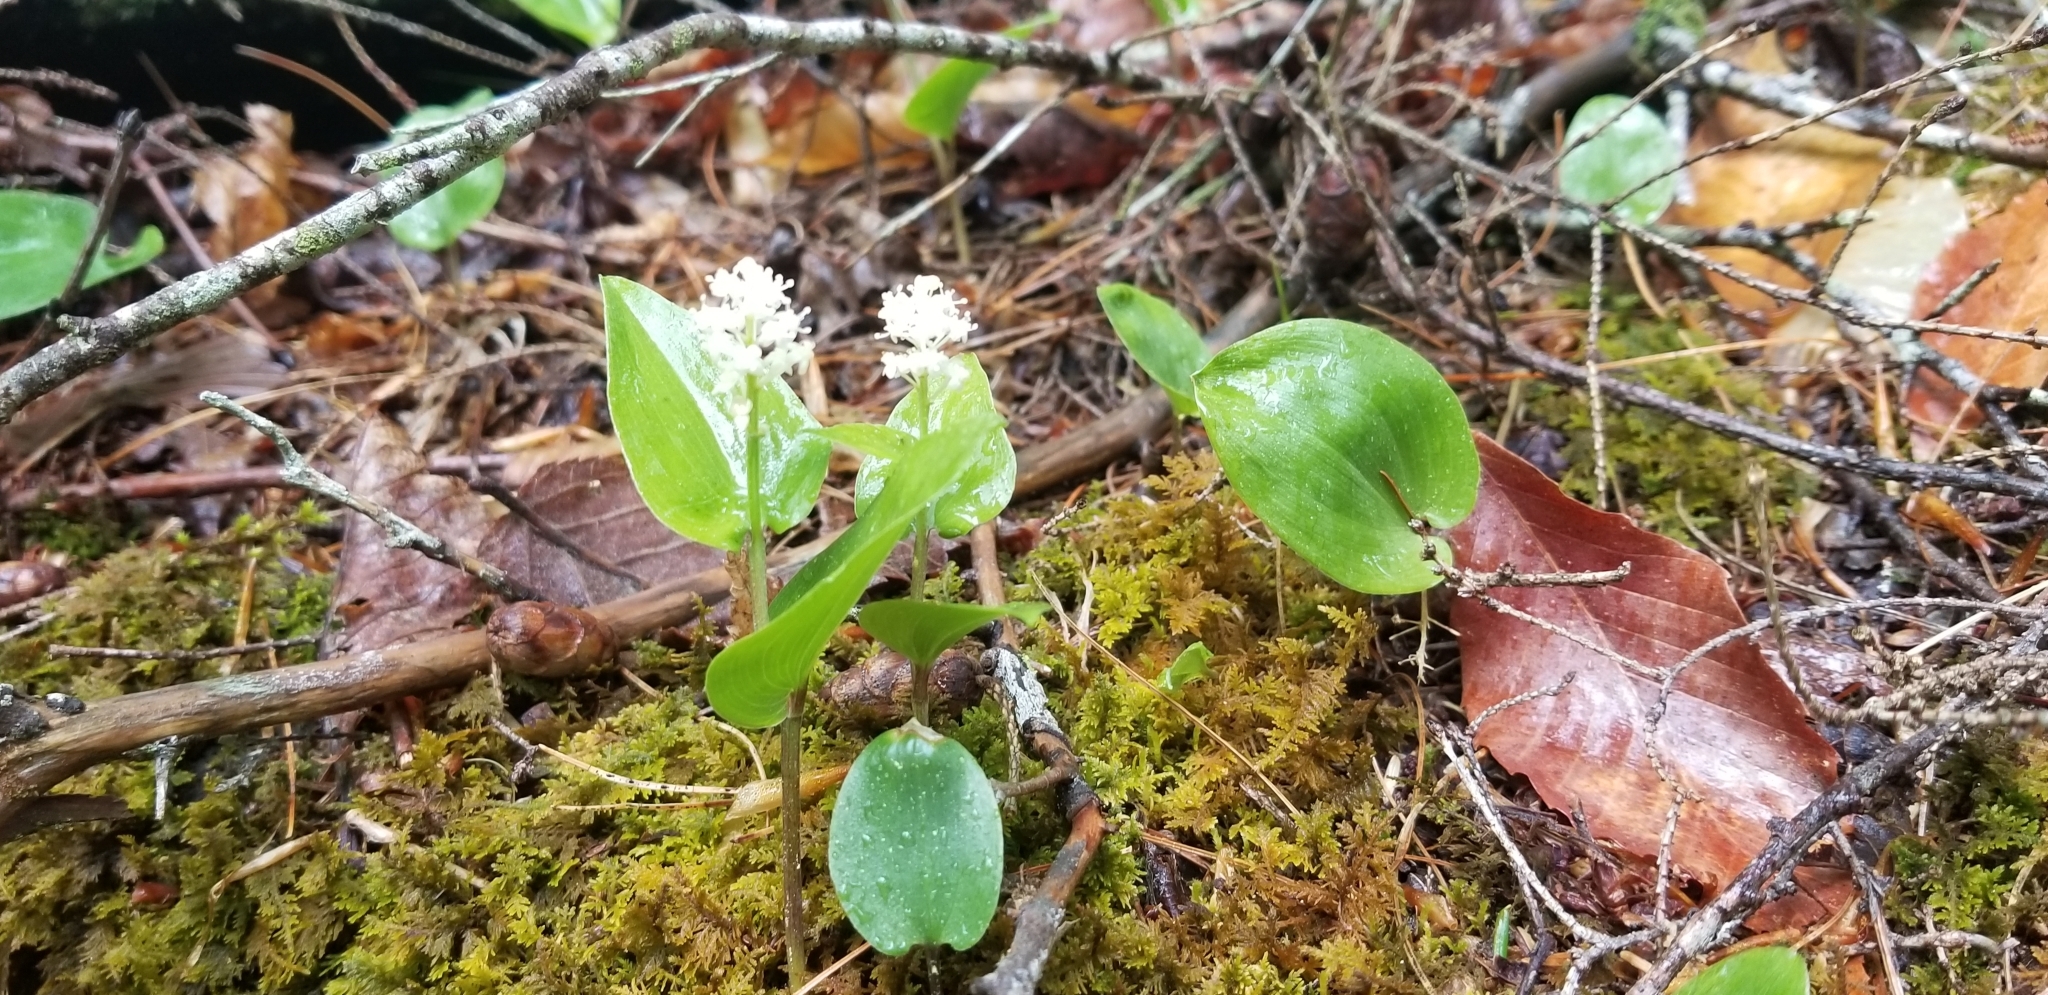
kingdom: Plantae
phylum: Tracheophyta
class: Liliopsida
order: Asparagales
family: Asparagaceae
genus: Maianthemum
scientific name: Maianthemum canadense
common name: False lily-of-the-valley
